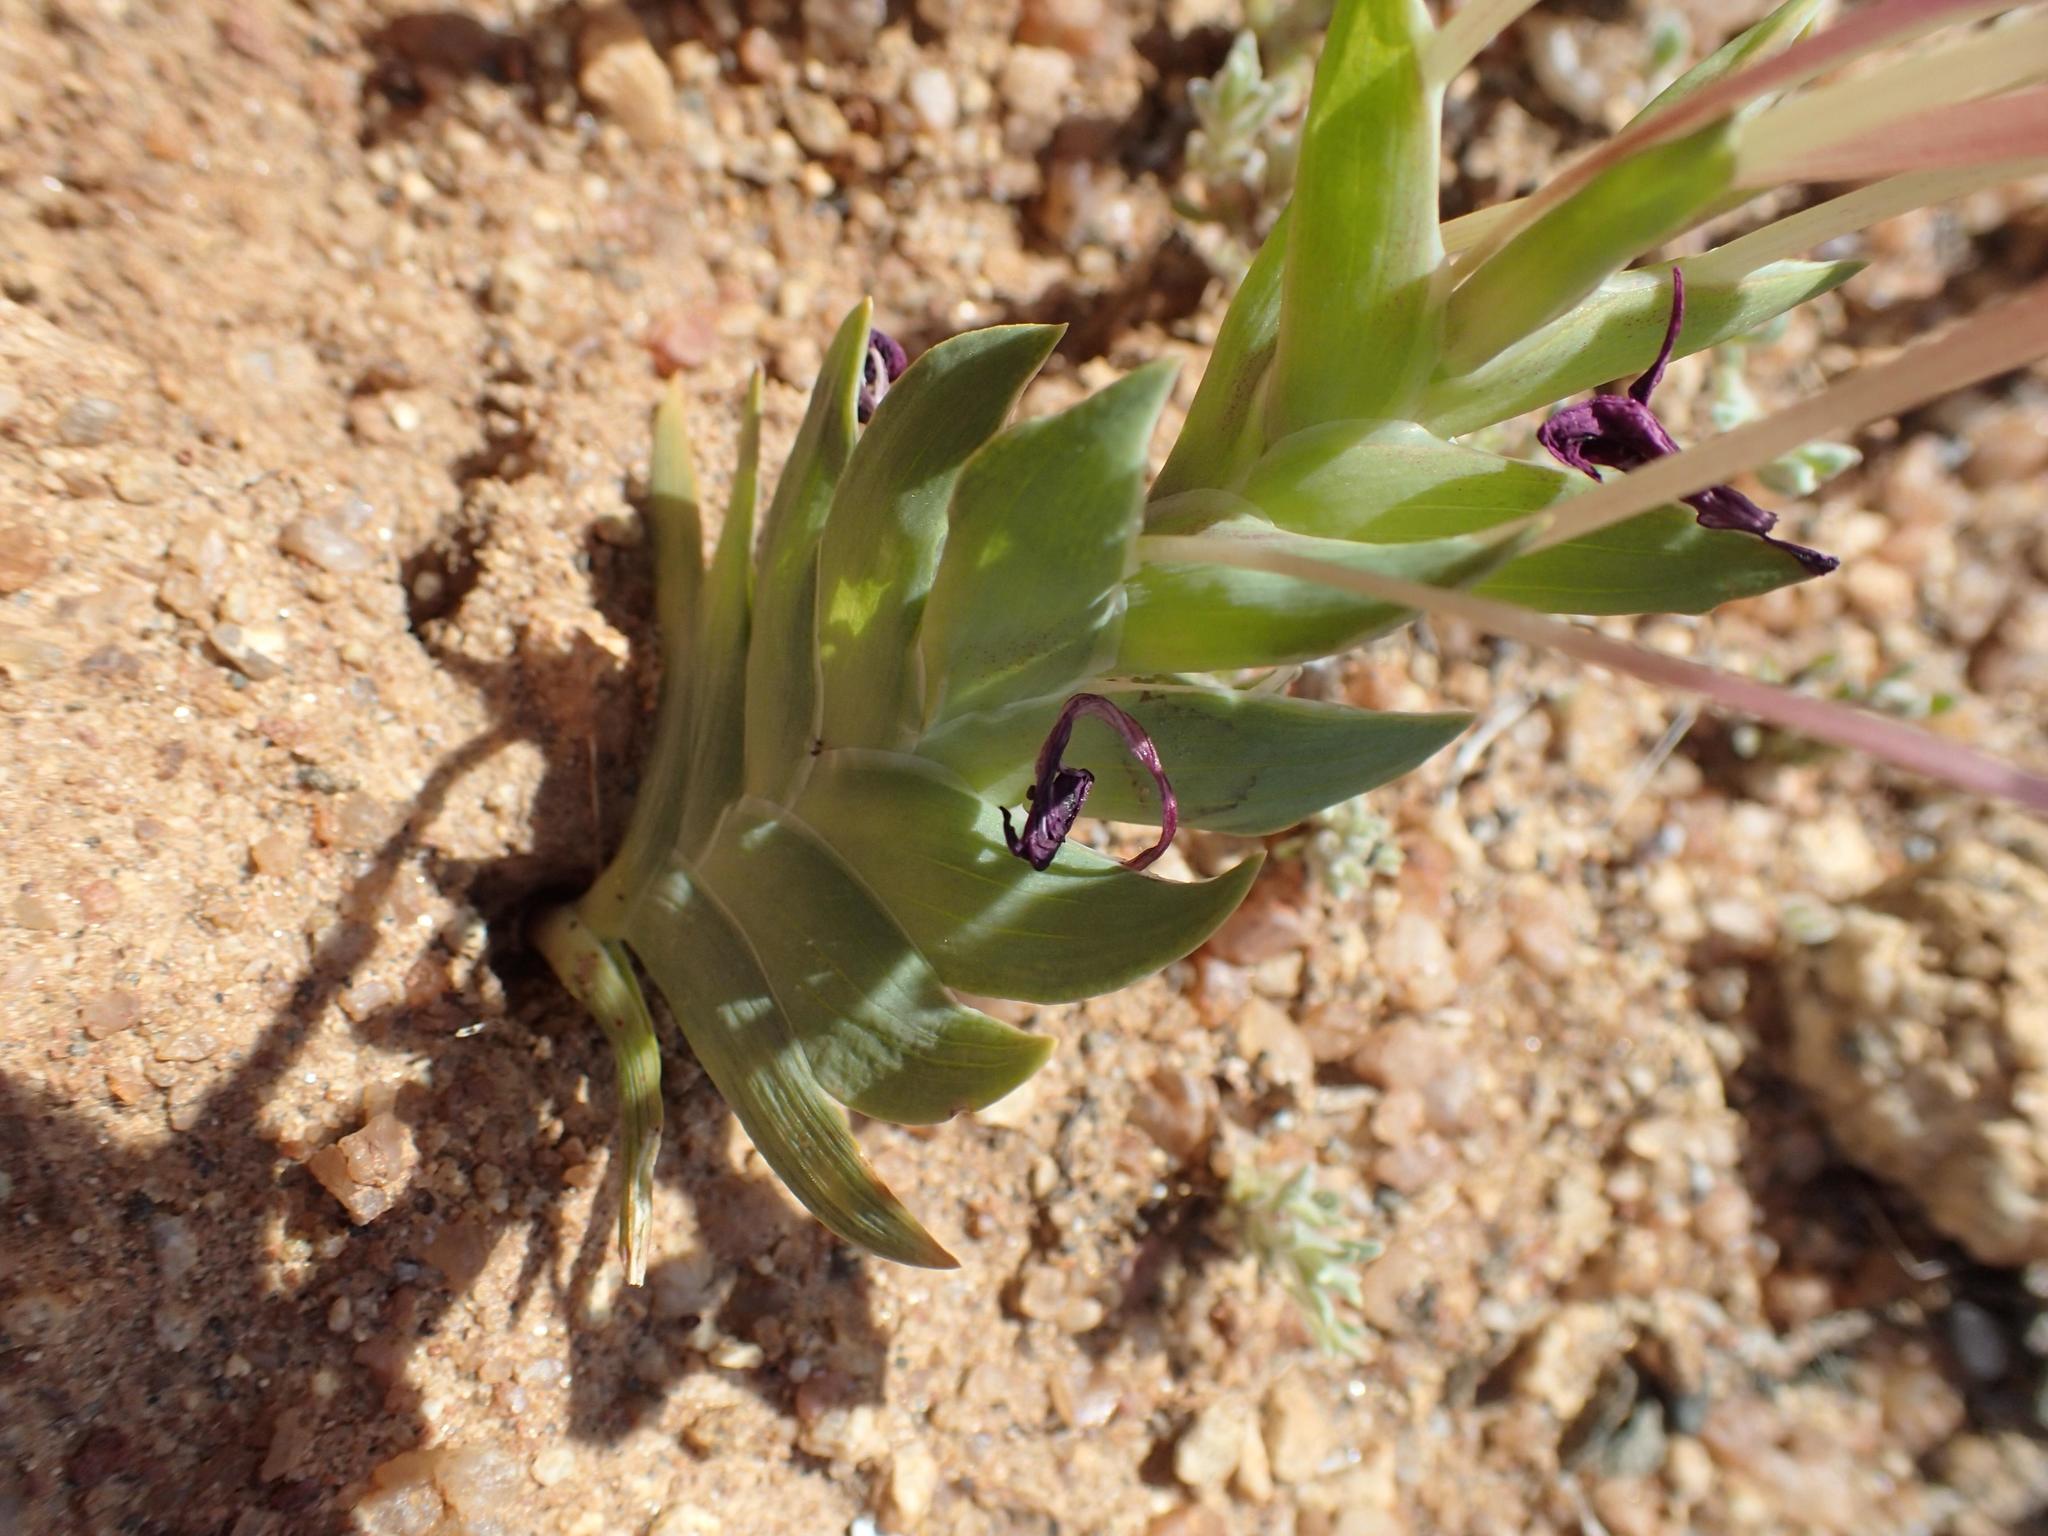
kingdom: Plantae
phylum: Tracheophyta
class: Liliopsida
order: Asparagales
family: Iridaceae
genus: Lapeirousia
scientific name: Lapeirousia silenoides
